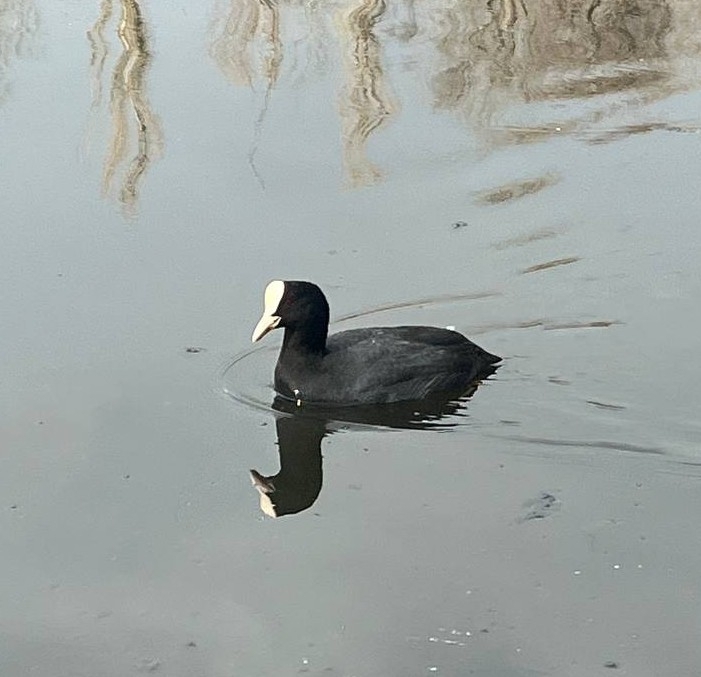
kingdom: Animalia
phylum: Chordata
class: Aves
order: Gruiformes
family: Rallidae
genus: Fulica
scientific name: Fulica atra
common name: Eurasian coot
